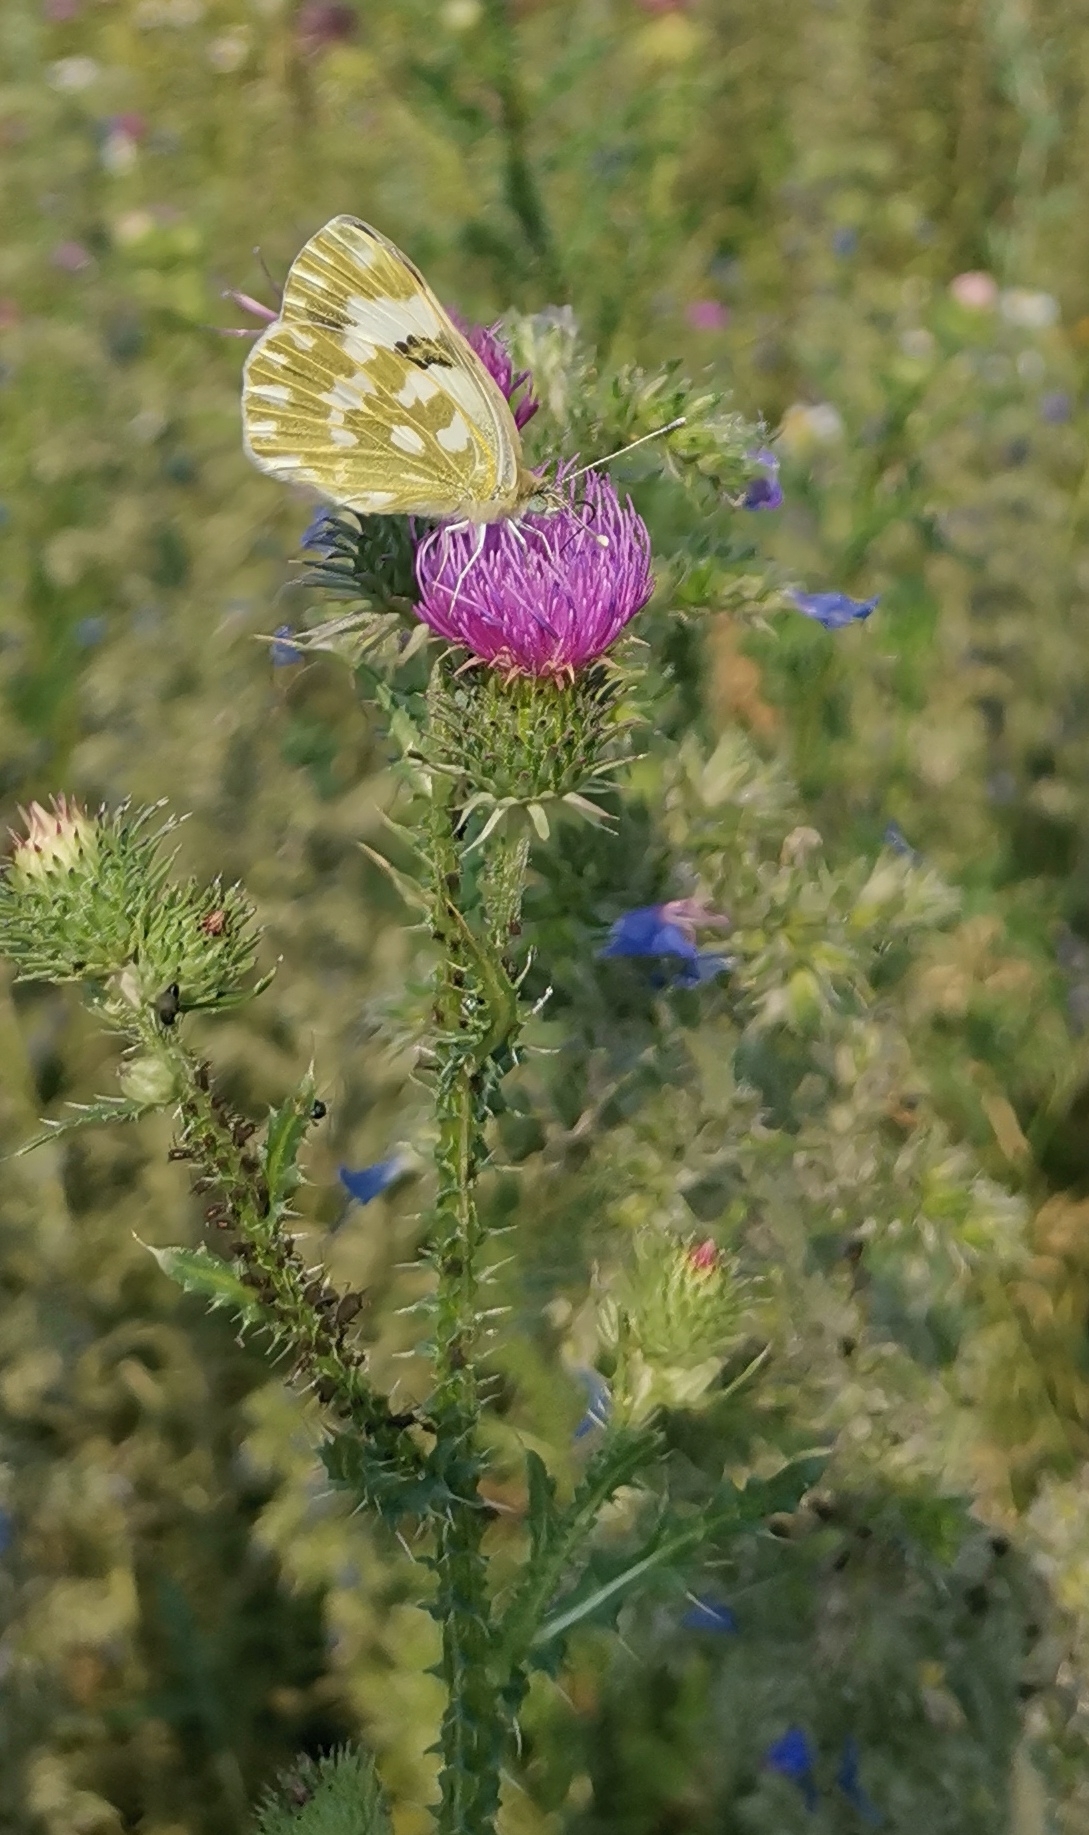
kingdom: Animalia
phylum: Arthropoda
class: Insecta
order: Lepidoptera
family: Pieridae
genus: Pontia
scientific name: Pontia edusa
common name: Eastern bath white
